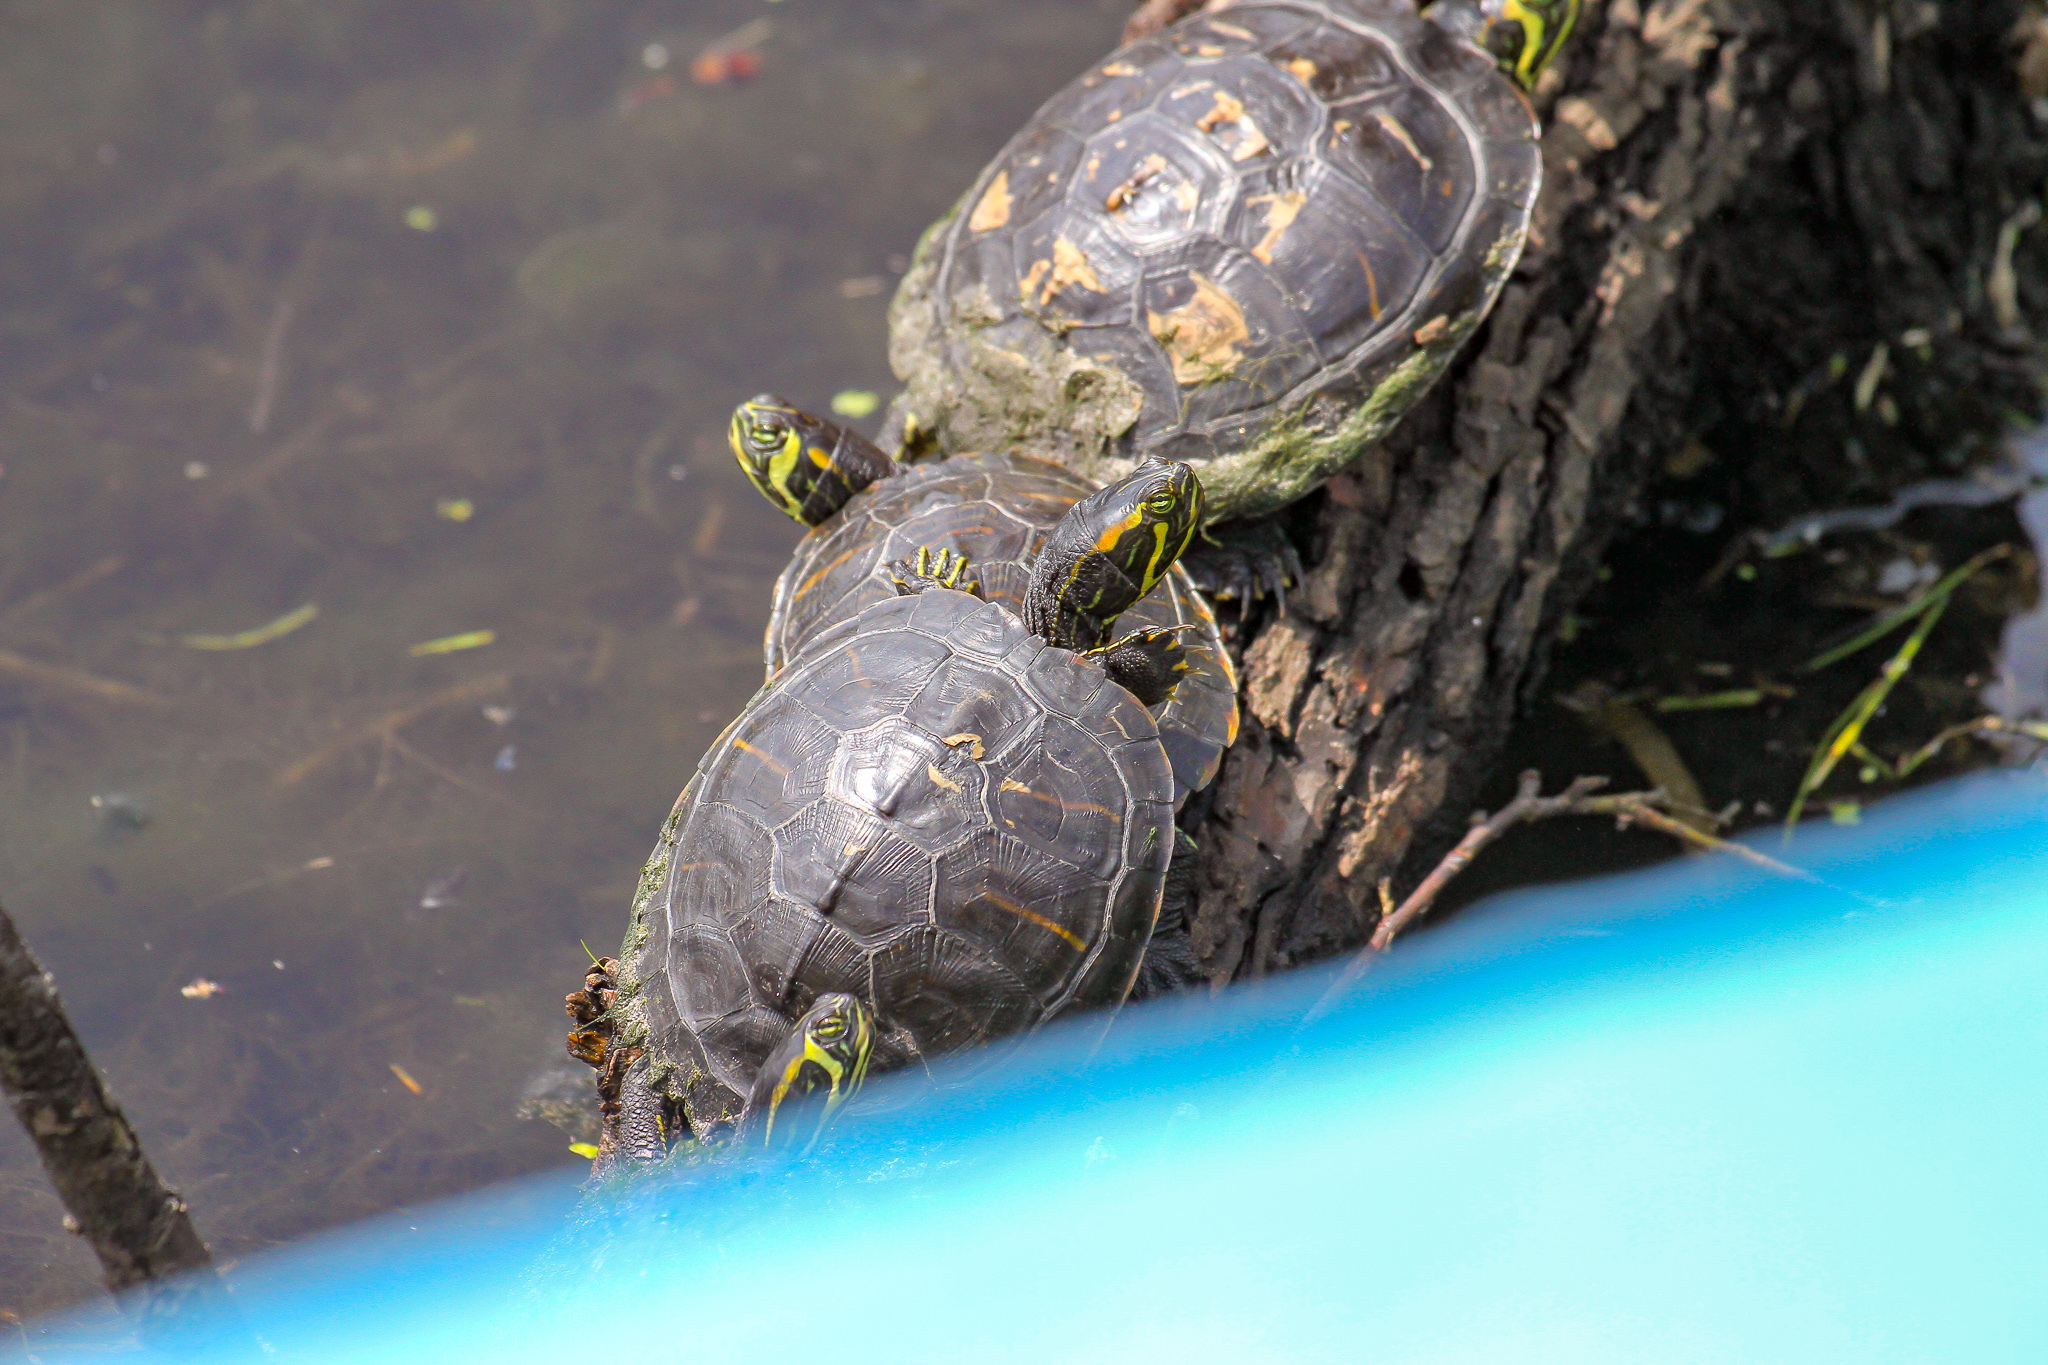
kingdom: Animalia
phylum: Chordata
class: Testudines
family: Emydidae
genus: Trachemys
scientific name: Trachemys scripta
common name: Slider
